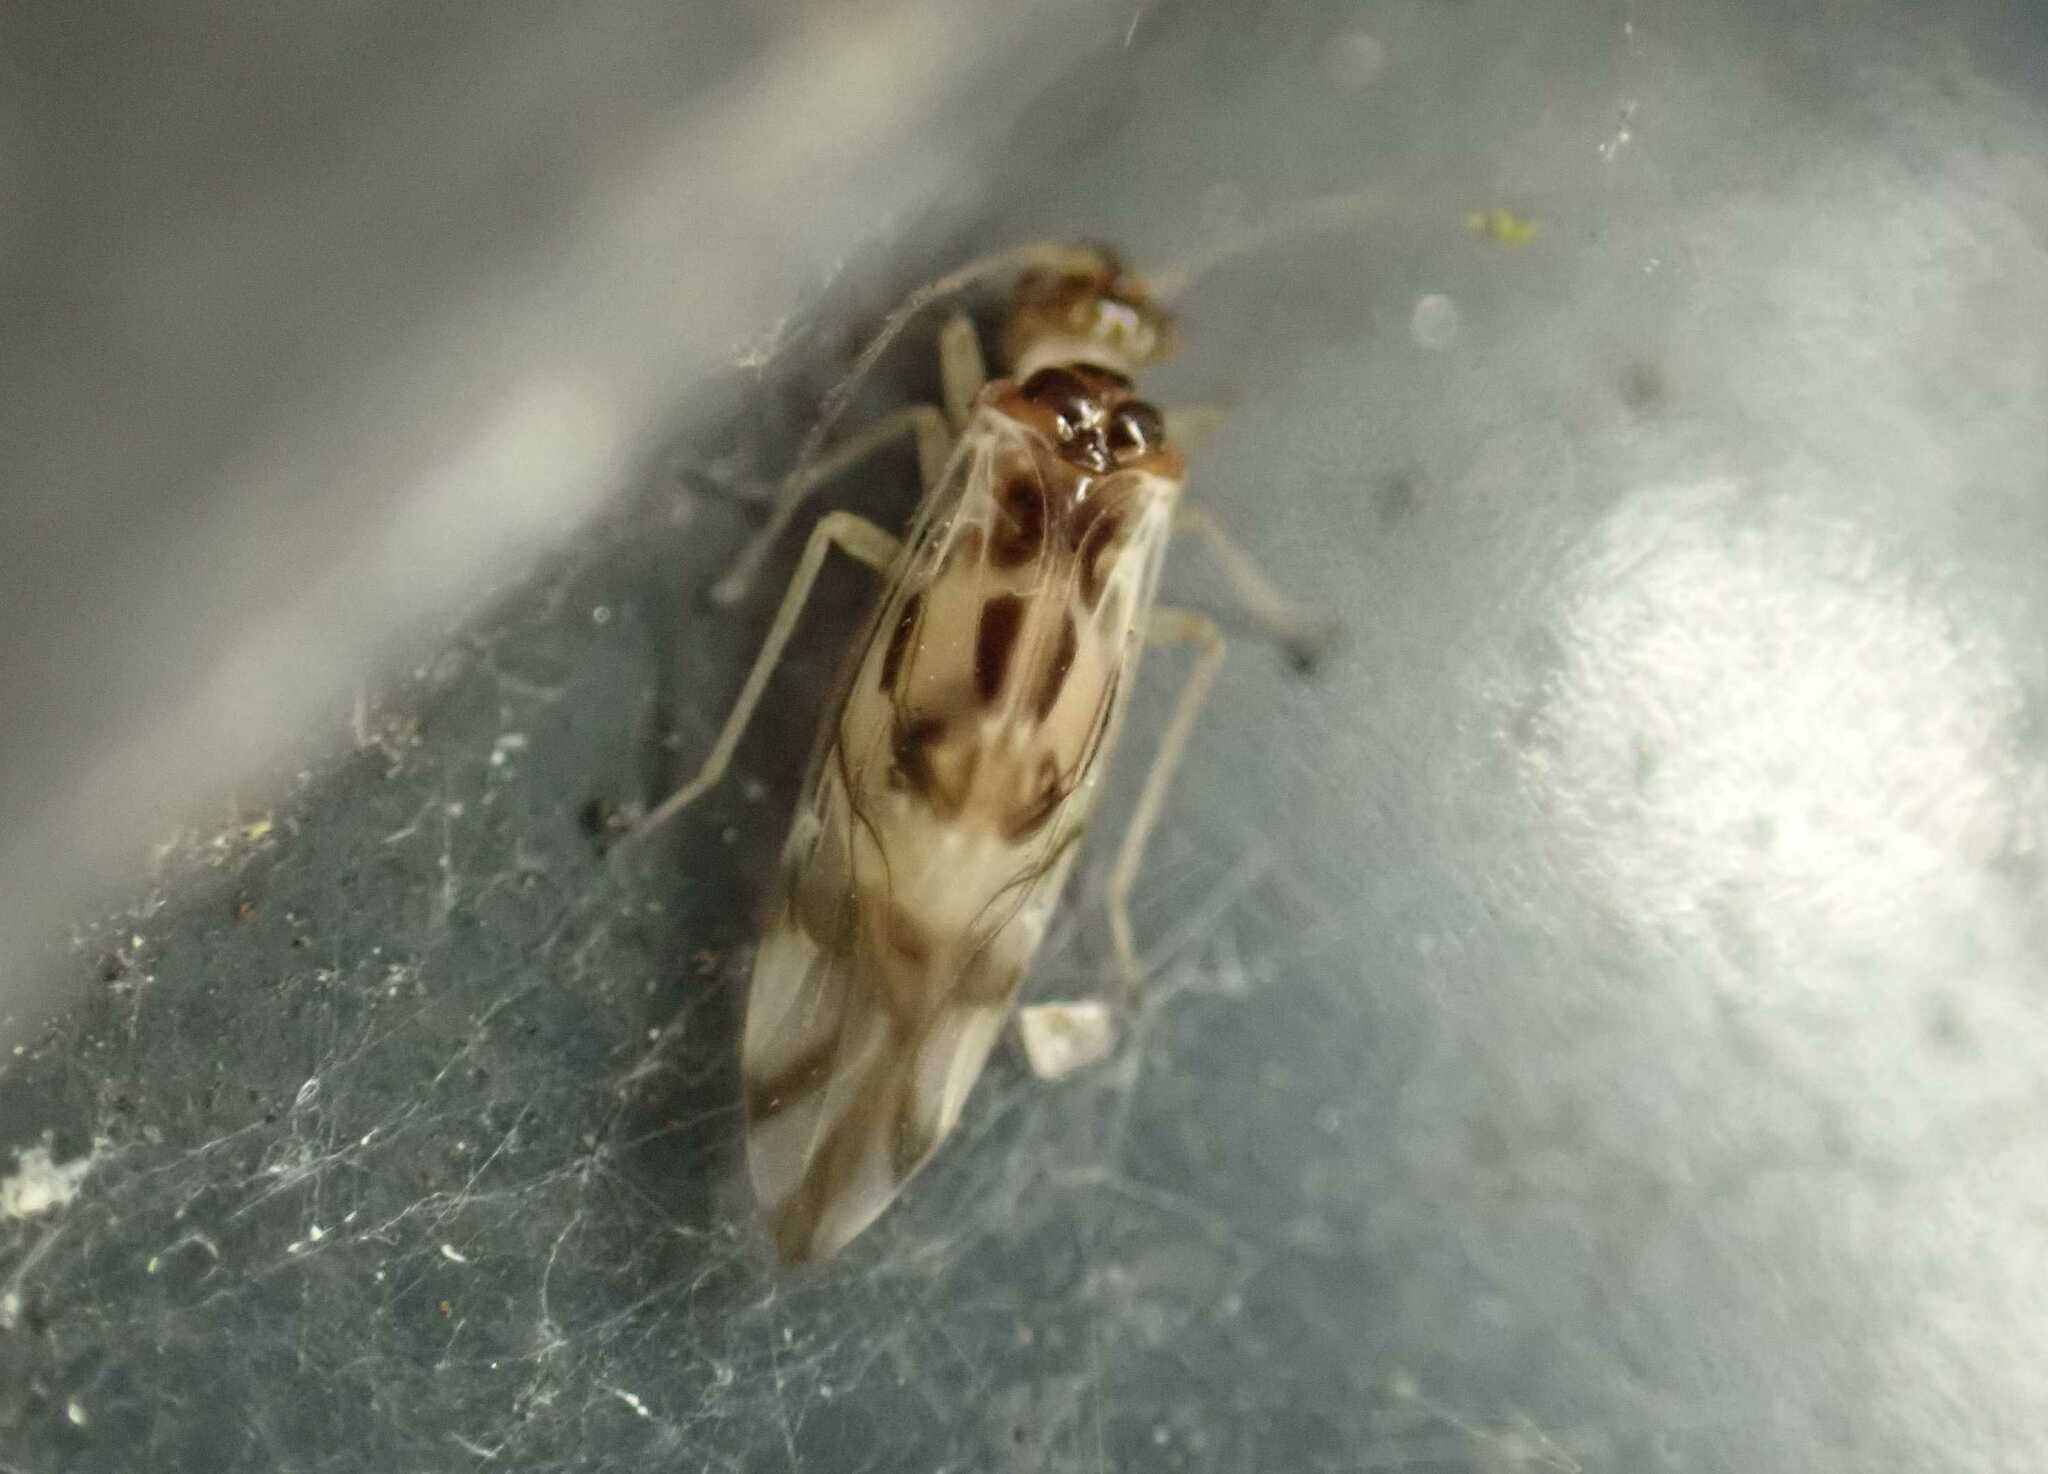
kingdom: Animalia
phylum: Arthropoda
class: Insecta
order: Psocodea
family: Stenopsocidae
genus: Graphopsocus
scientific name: Graphopsocus cruciatus
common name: Lizard bark louse
